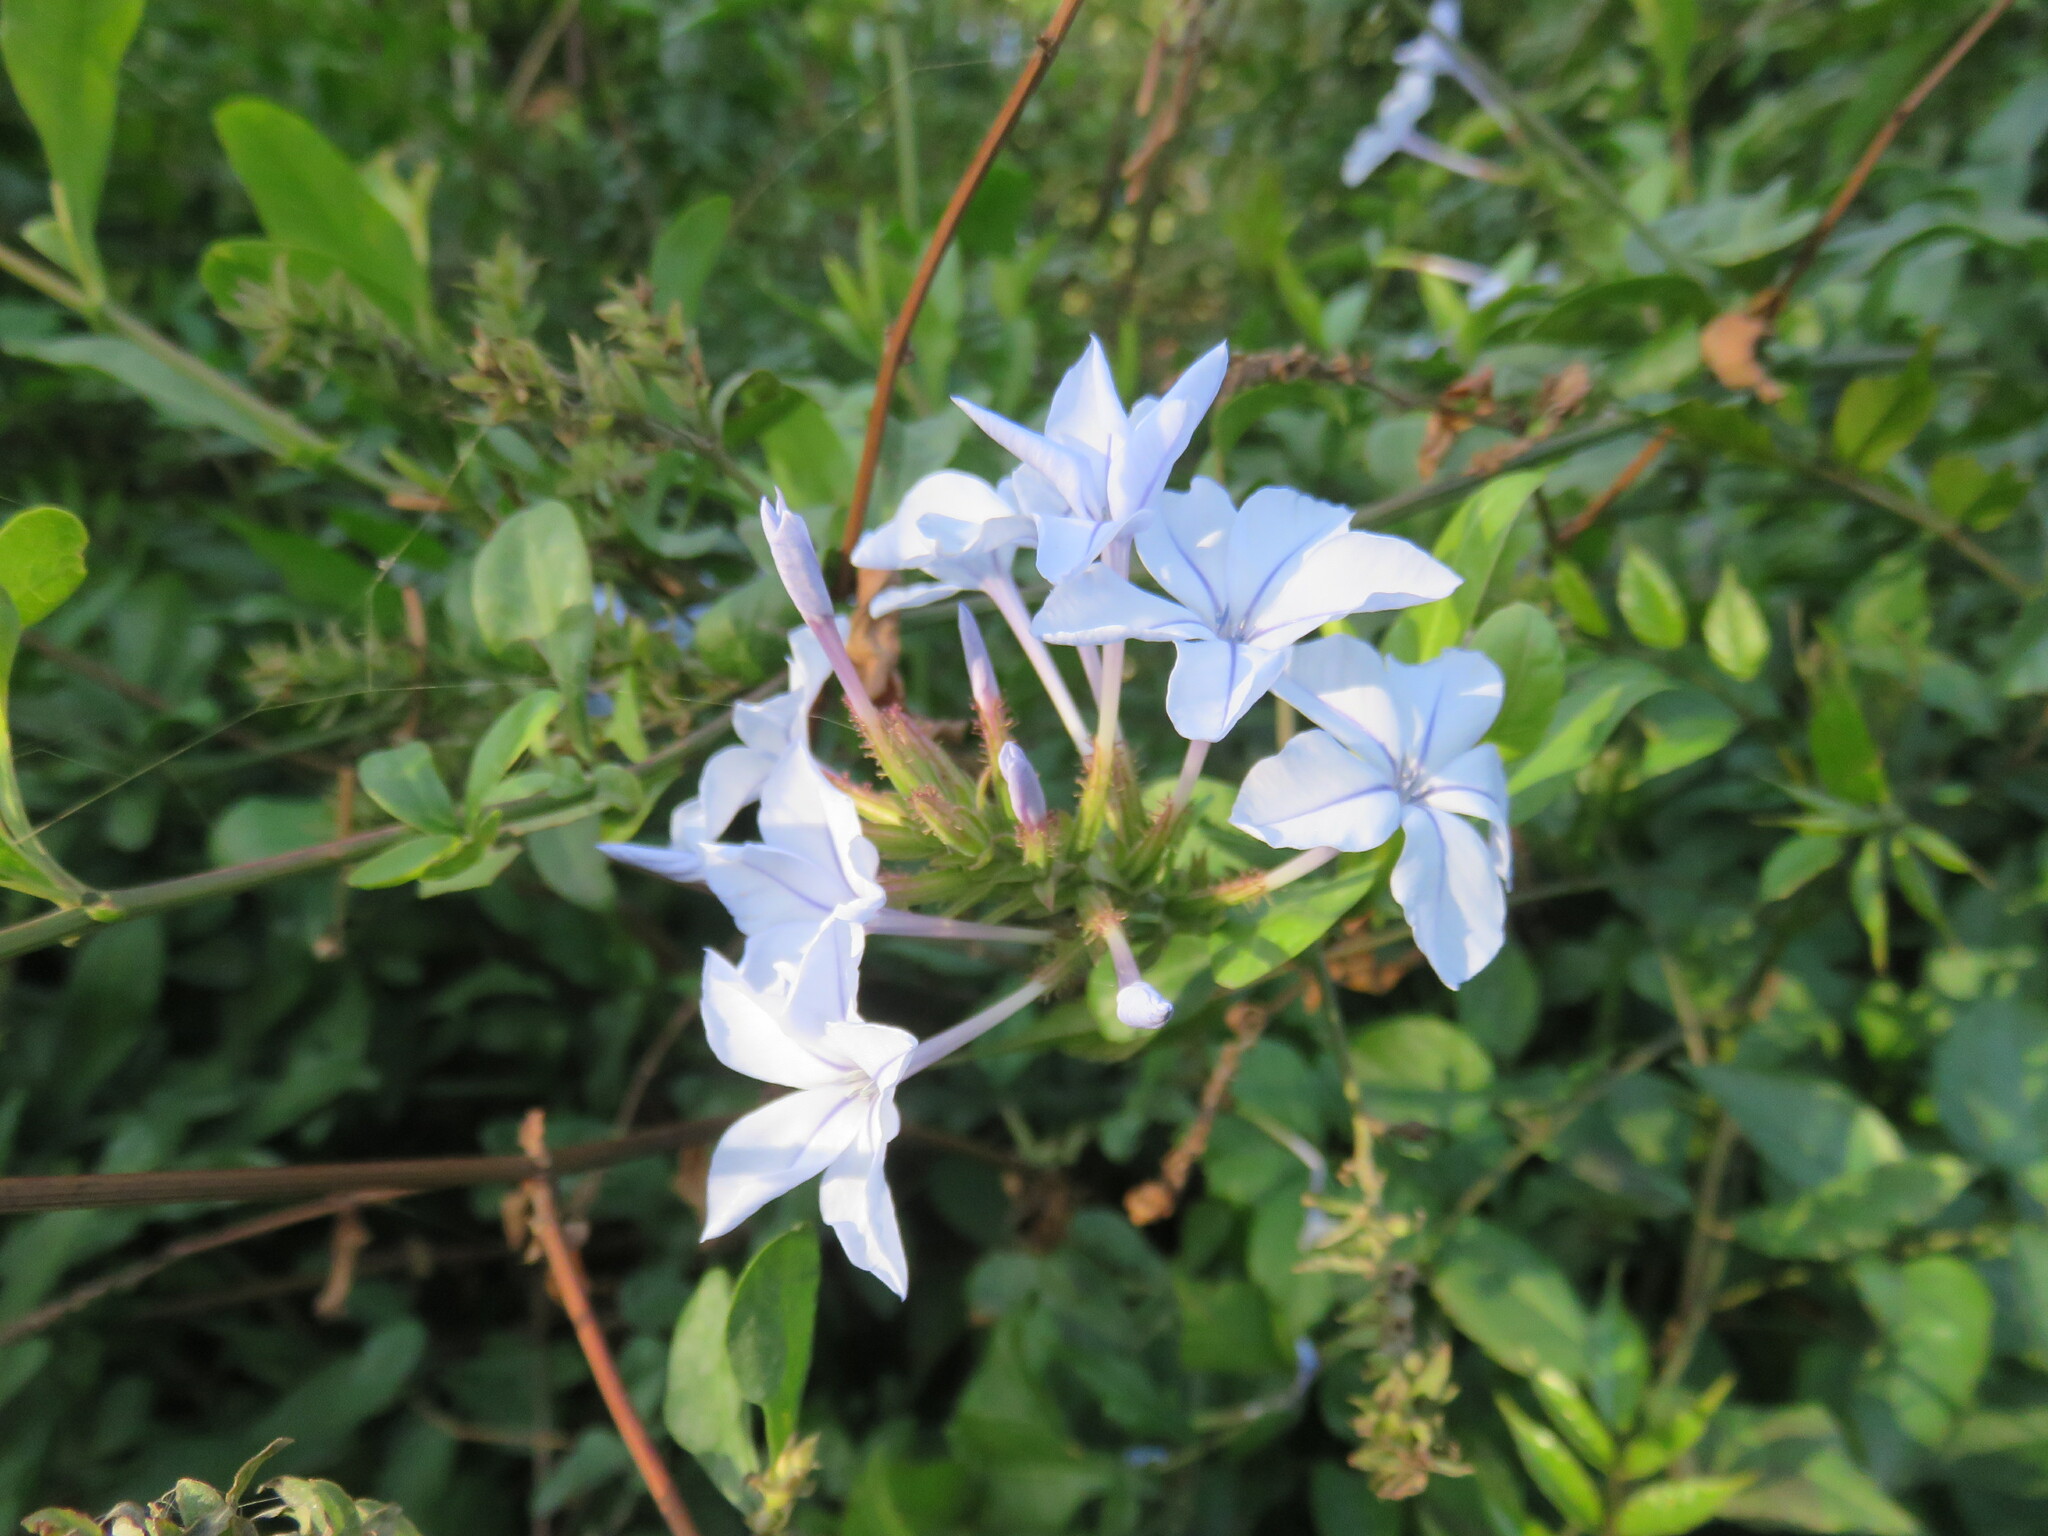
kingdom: Plantae
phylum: Tracheophyta
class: Magnoliopsida
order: Caryophyllales
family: Plumbaginaceae
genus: Plumbago
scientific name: Plumbago auriculata
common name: Cape leadwort
